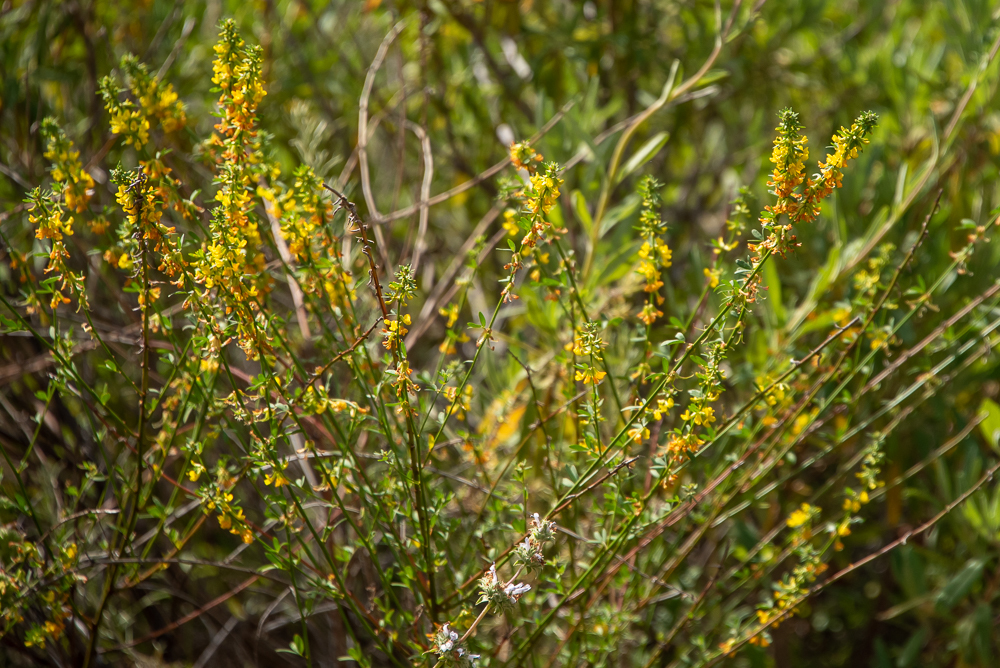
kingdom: Plantae
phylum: Tracheophyta
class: Magnoliopsida
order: Fabales
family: Fabaceae
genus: Acmispon
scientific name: Acmispon glaber
